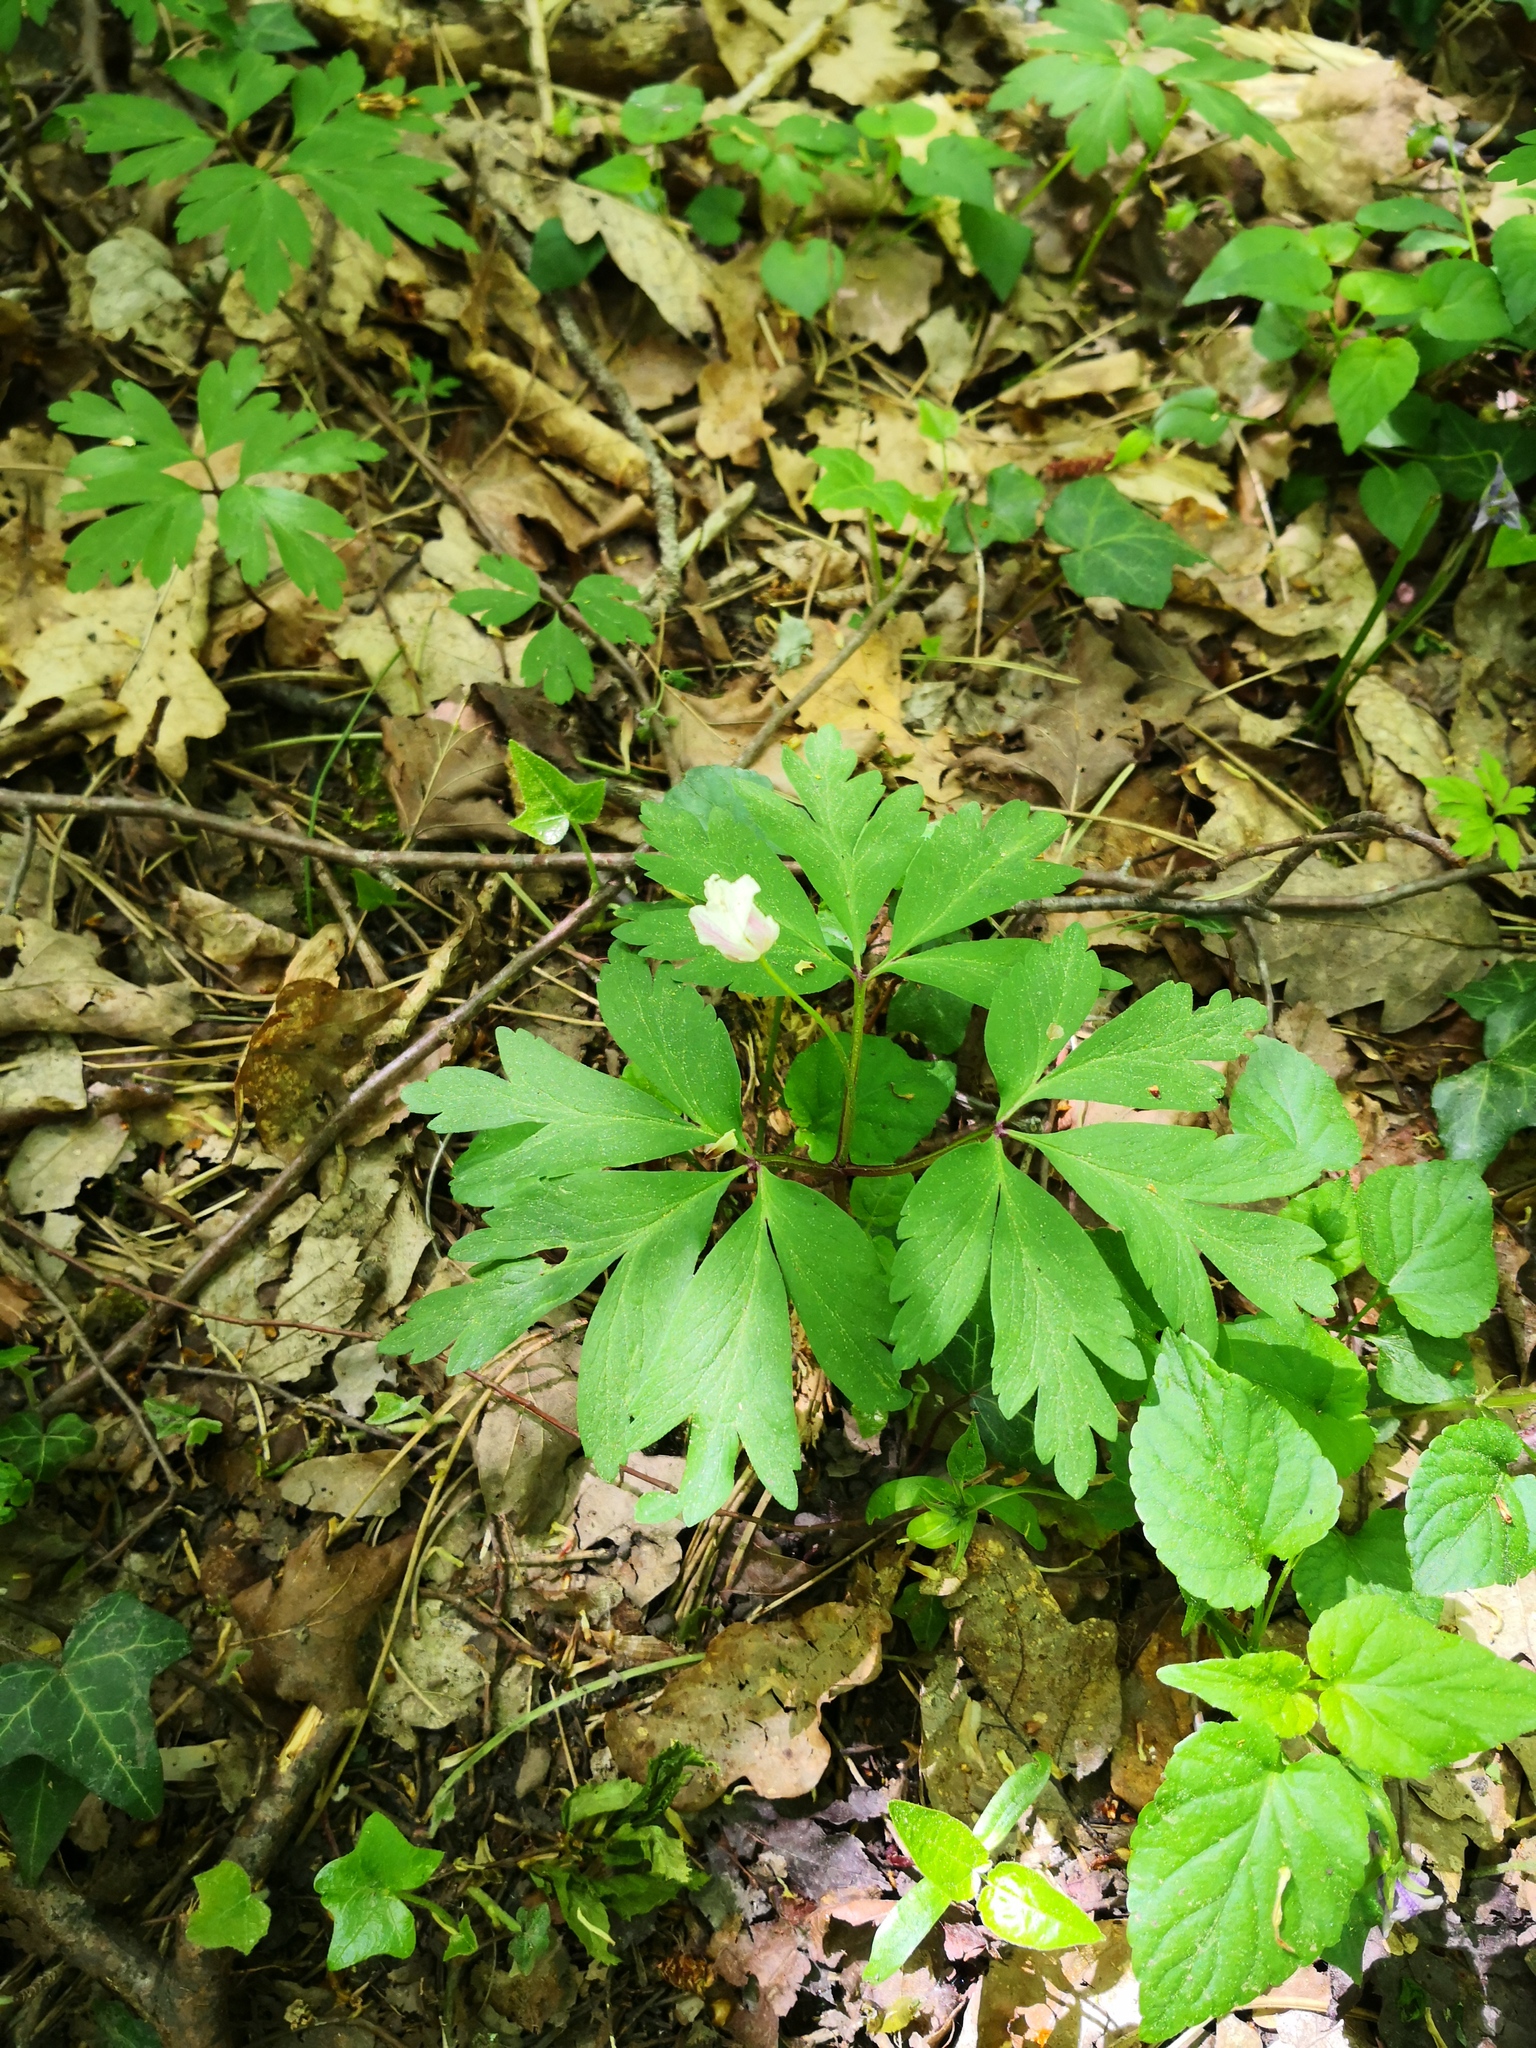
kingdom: Plantae
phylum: Tracheophyta
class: Magnoliopsida
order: Ranunculales
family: Ranunculaceae
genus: Anemone
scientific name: Anemone nemorosa
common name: Wood anemone
